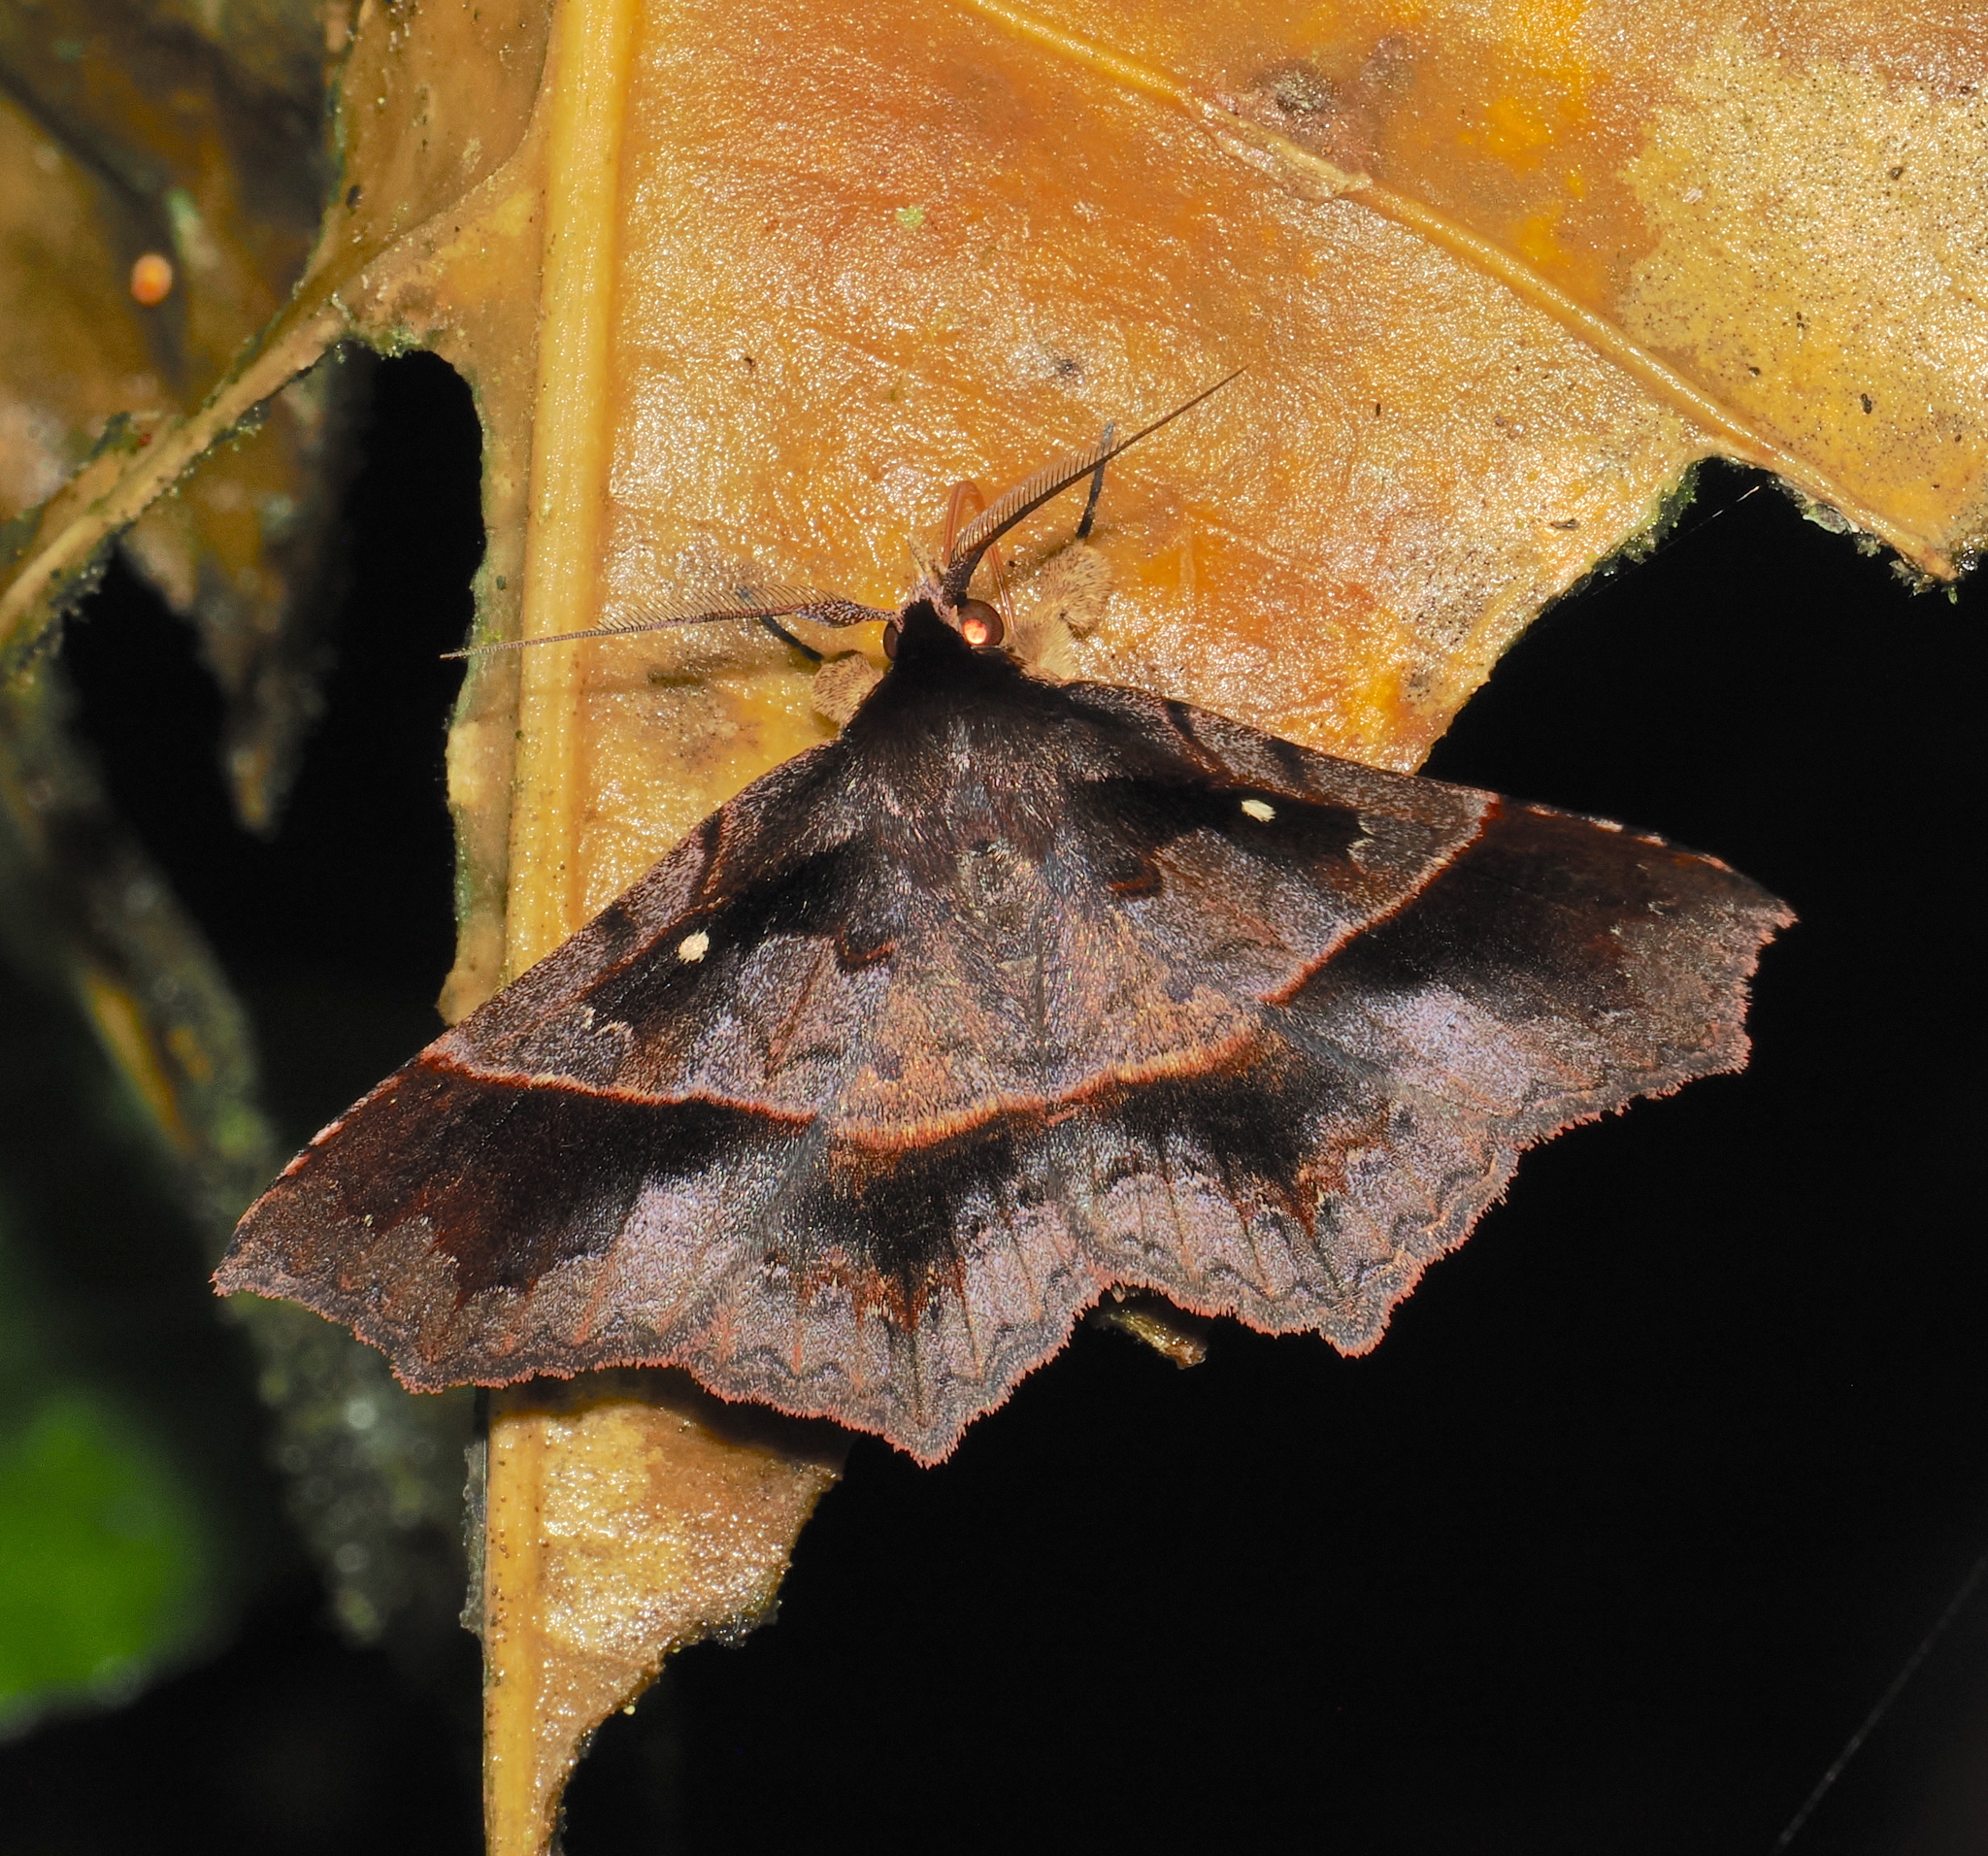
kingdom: Animalia
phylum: Arthropoda
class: Insecta
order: Lepidoptera
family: Erebidae
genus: Systremma
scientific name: Systremma ennomodes
